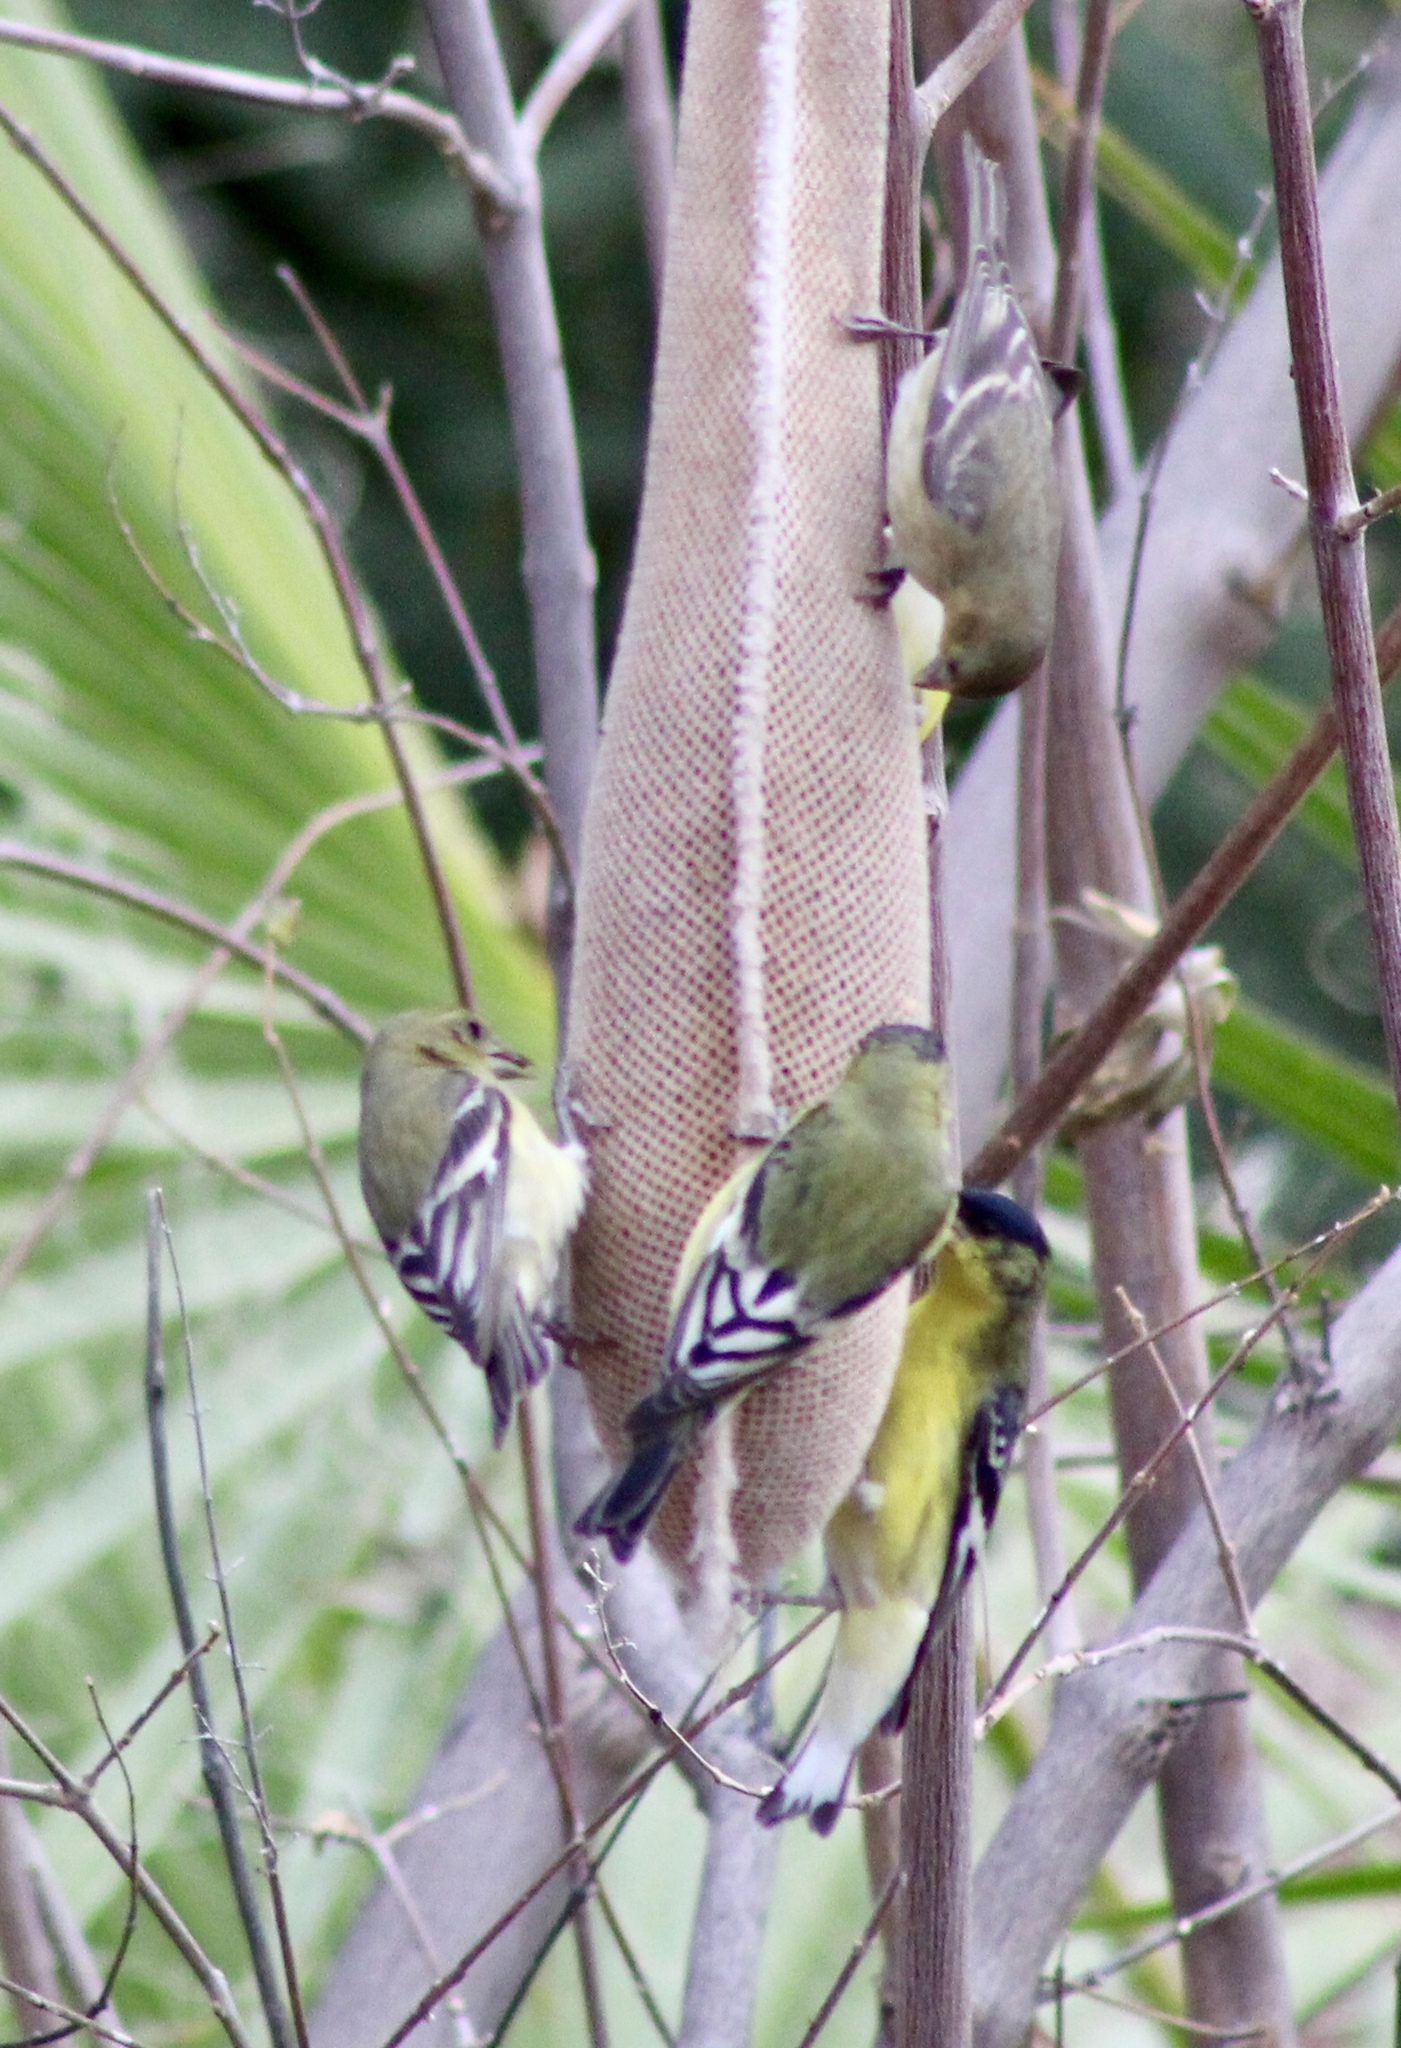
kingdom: Animalia
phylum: Chordata
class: Aves
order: Passeriformes
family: Fringillidae
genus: Spinus
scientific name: Spinus psaltria
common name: Lesser goldfinch
